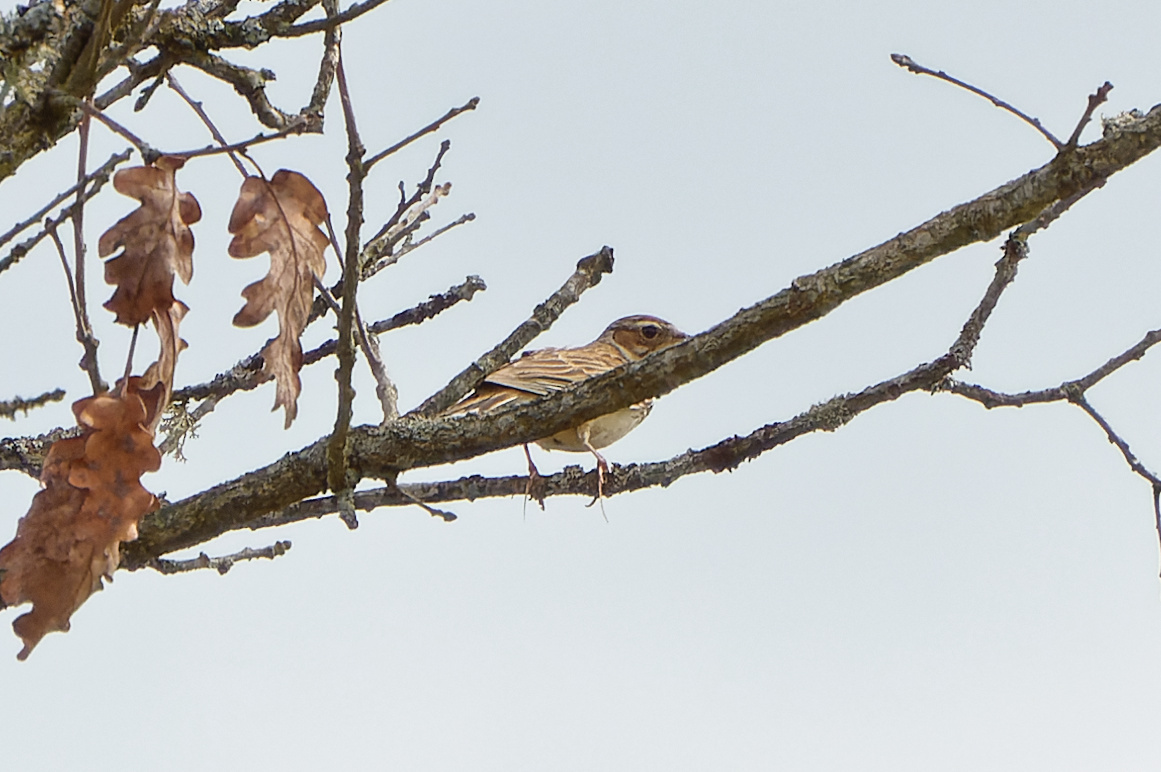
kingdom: Animalia
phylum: Chordata
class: Aves
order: Passeriformes
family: Alaudidae
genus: Lullula
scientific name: Lullula arborea
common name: Woodlark
